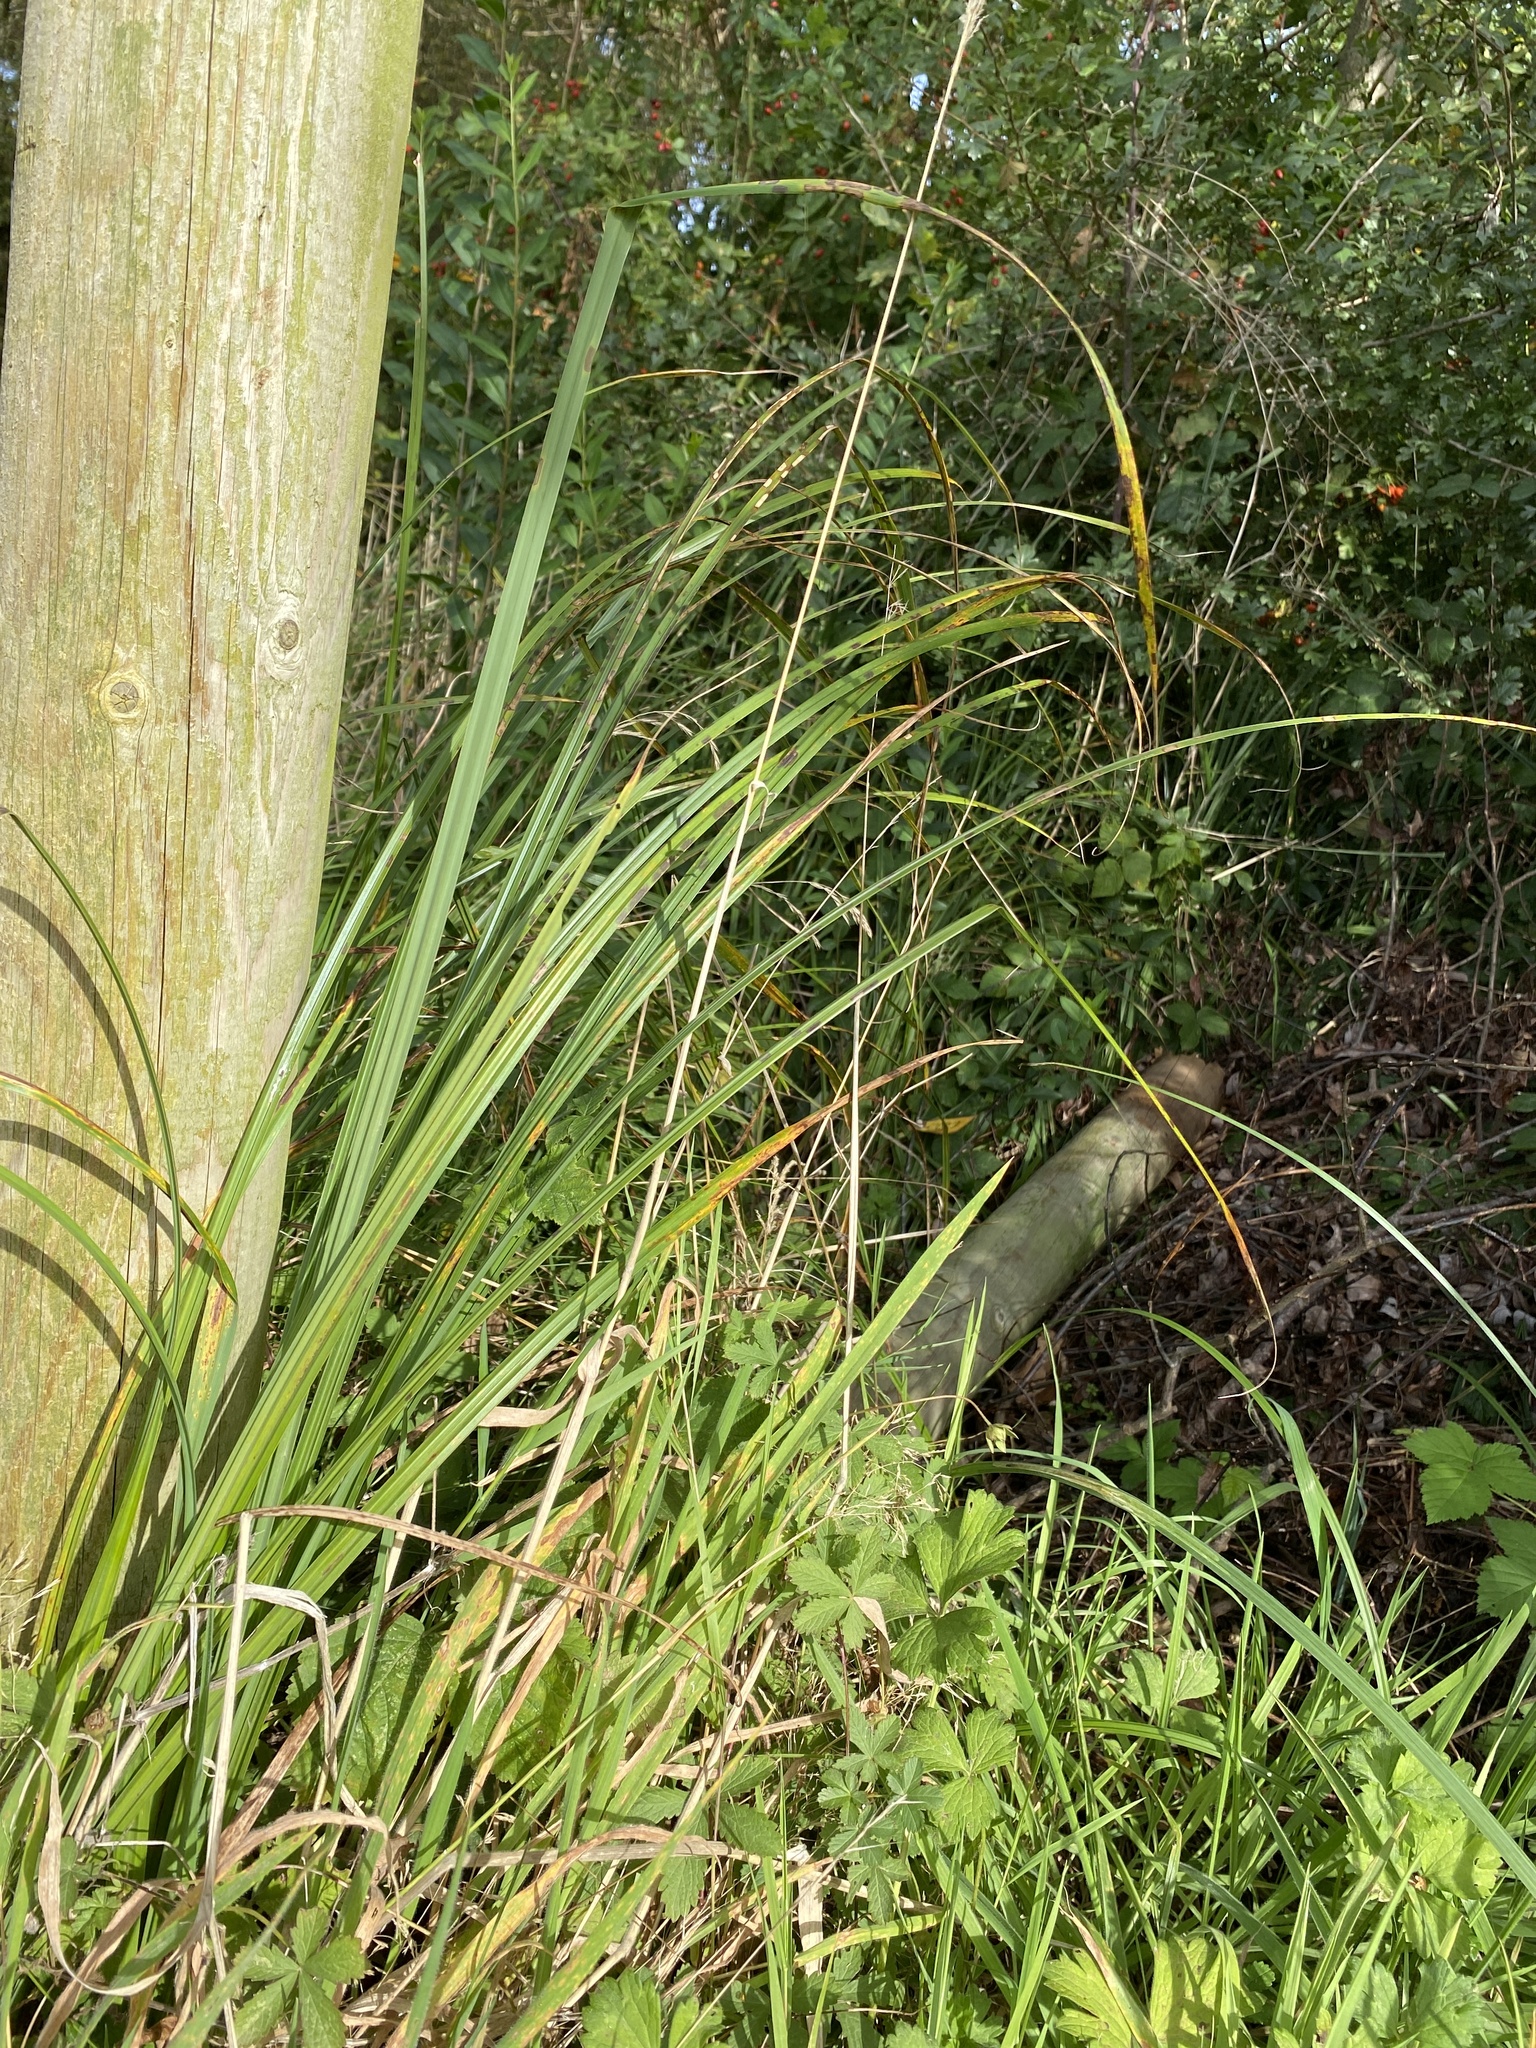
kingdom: Plantae
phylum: Tracheophyta
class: Liliopsida
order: Poales
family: Cyperaceae
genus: Carex
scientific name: Carex pendula
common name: Pendulous sedge
